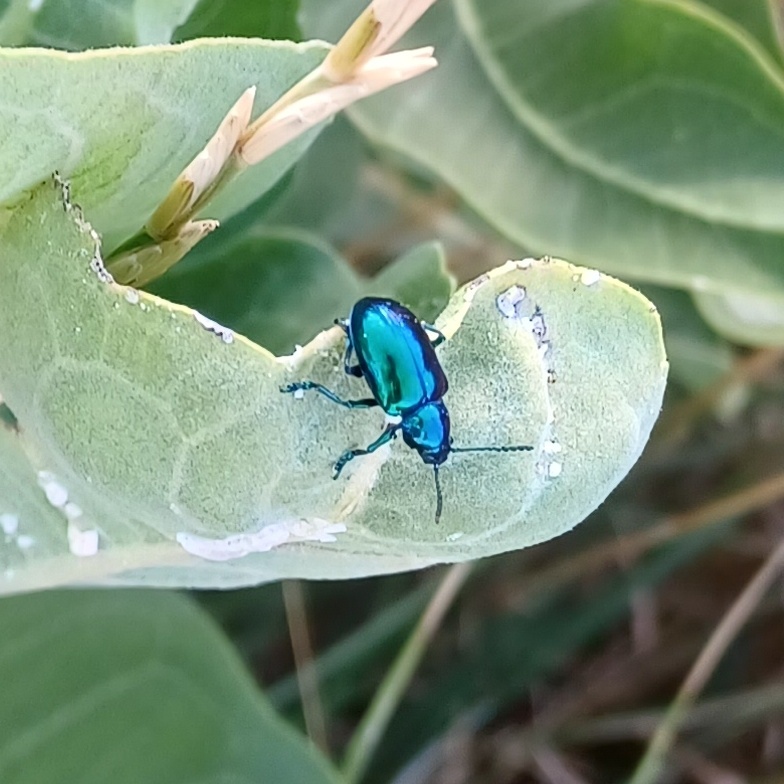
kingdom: Animalia
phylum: Arthropoda
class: Insecta
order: Coleoptera
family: Chrysomelidae
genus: Chrysochus
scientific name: Chrysochus cobaltinus
